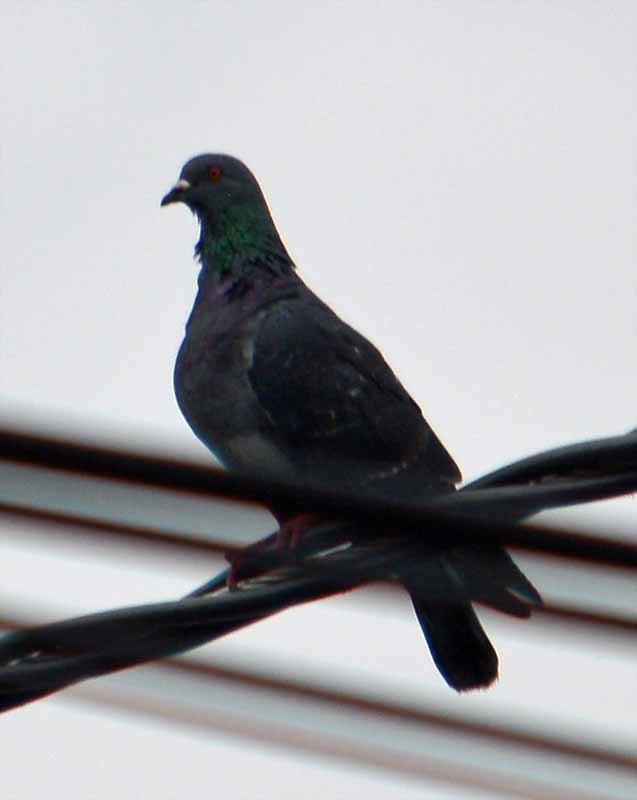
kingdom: Animalia
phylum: Chordata
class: Aves
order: Columbiformes
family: Columbidae
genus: Columba
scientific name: Columba livia
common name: Rock pigeon
